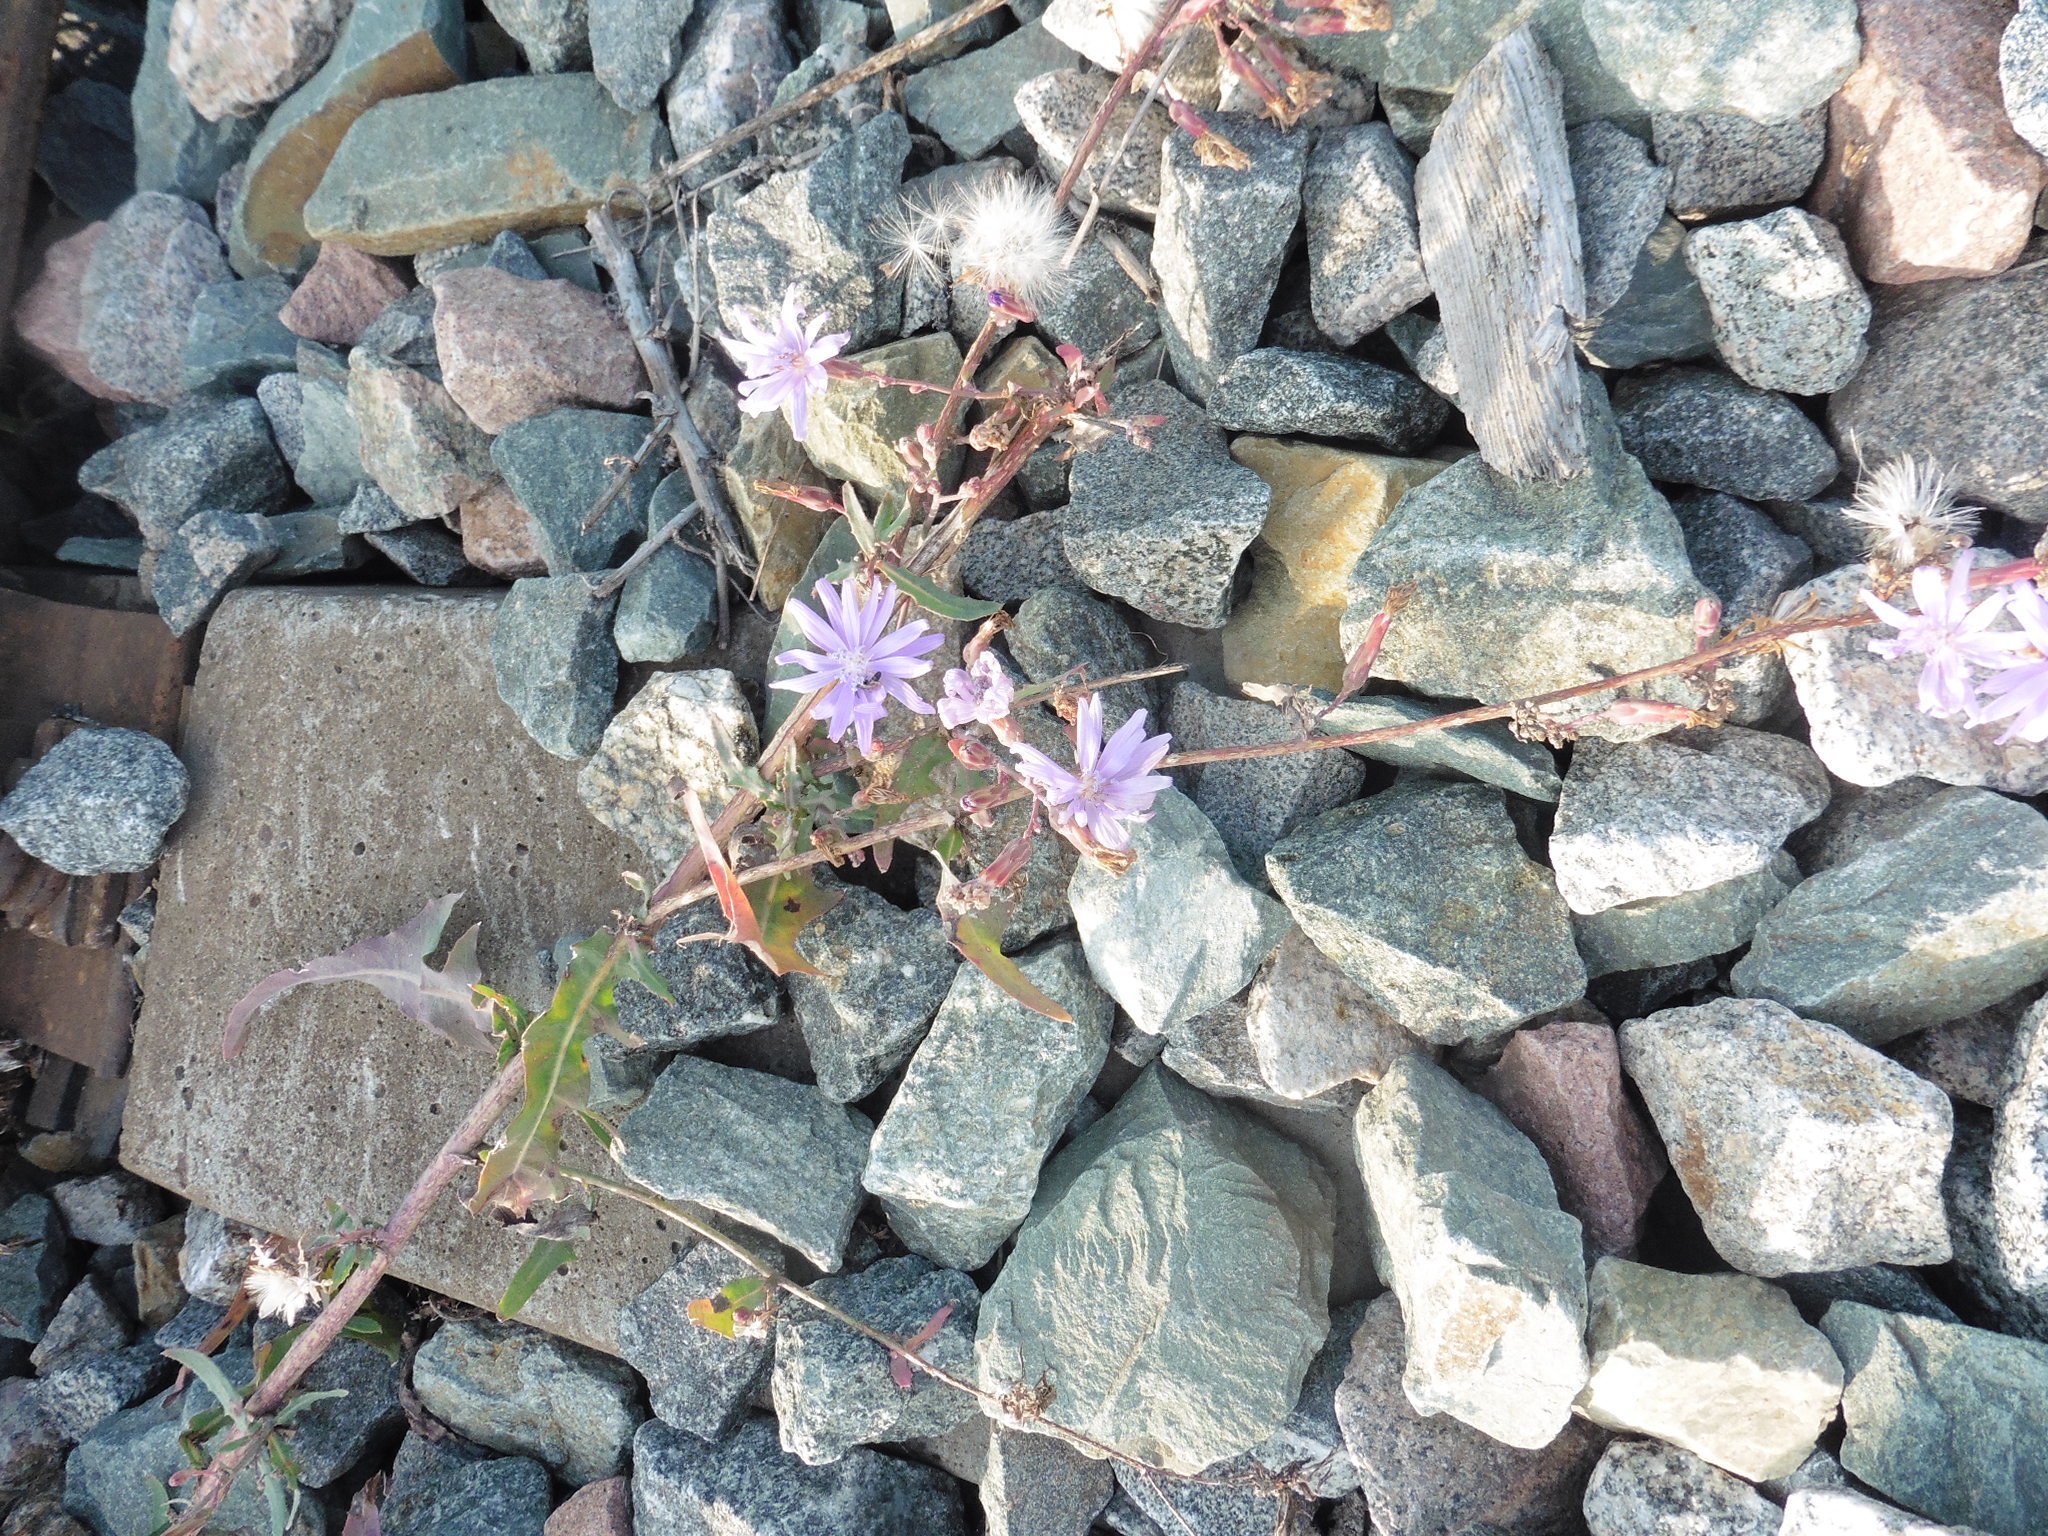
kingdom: Plantae
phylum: Tracheophyta
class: Magnoliopsida
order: Asterales
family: Asteraceae
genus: Lactuca
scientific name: Lactuca tatarica
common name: Blue lettuce
